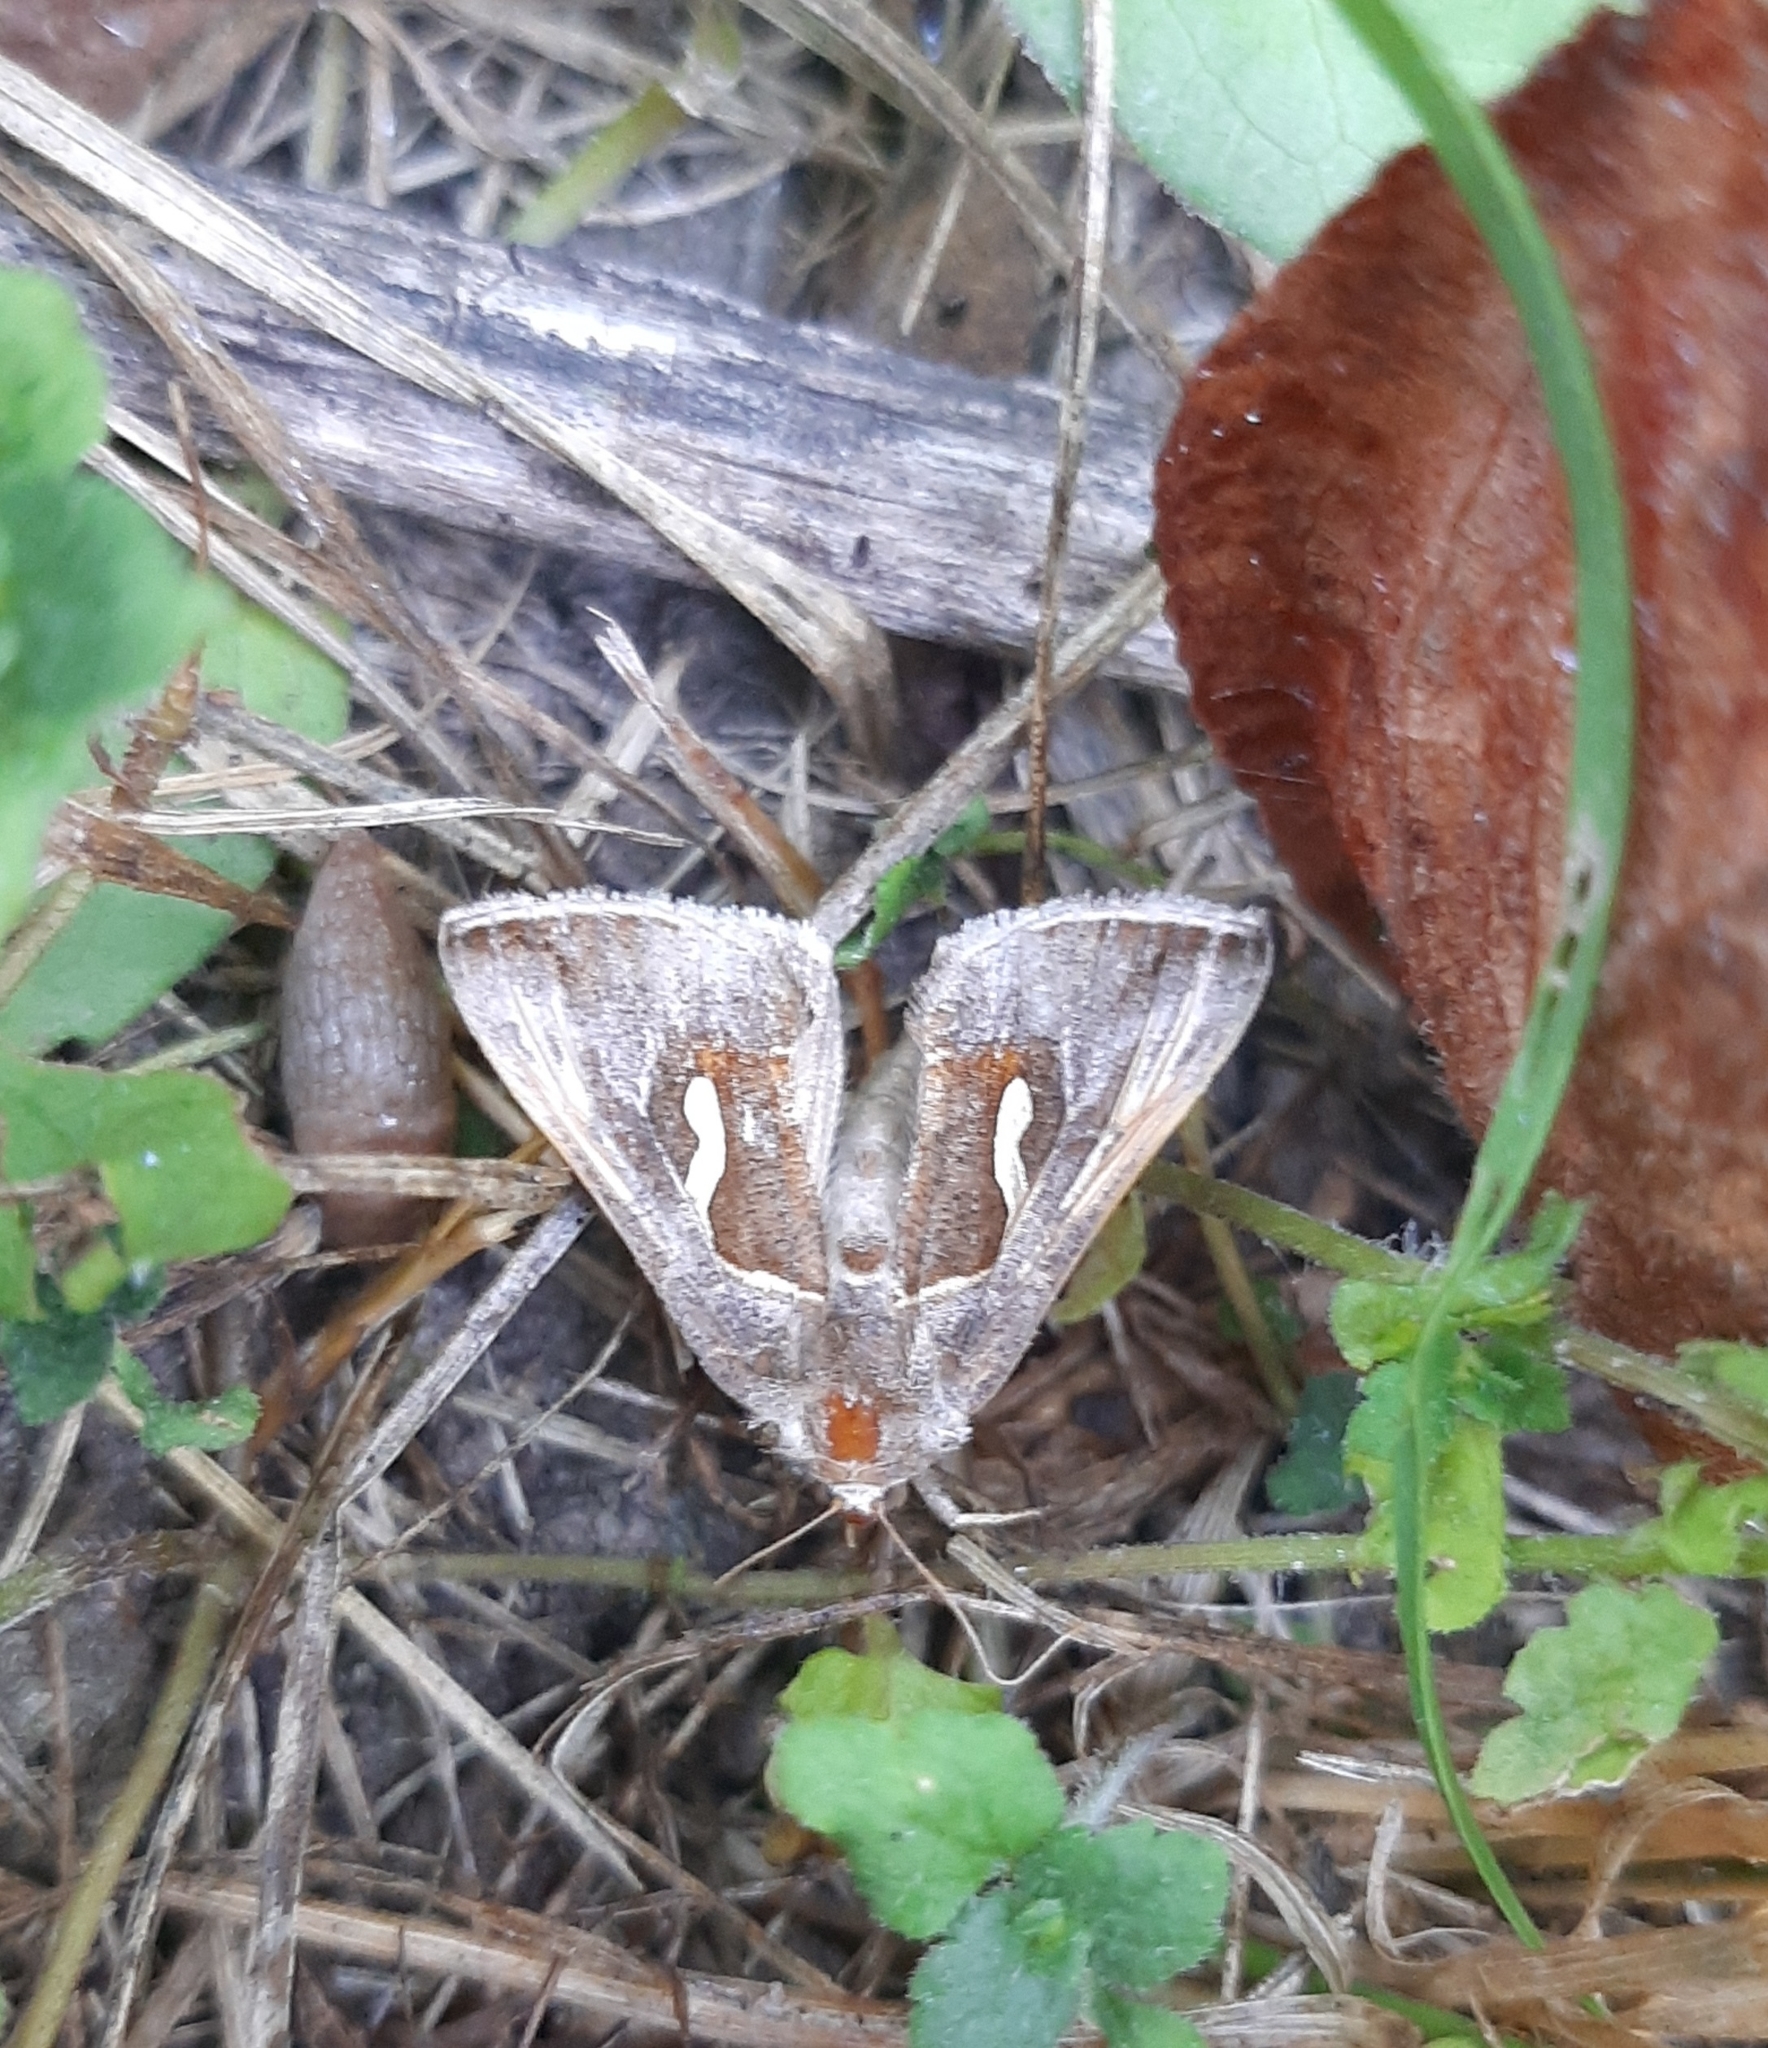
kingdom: Animalia
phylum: Arthropoda
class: Insecta
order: Lepidoptera
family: Noctuidae
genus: Macdunnoughia
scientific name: Macdunnoughia confusa
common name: Dewick's plusia
